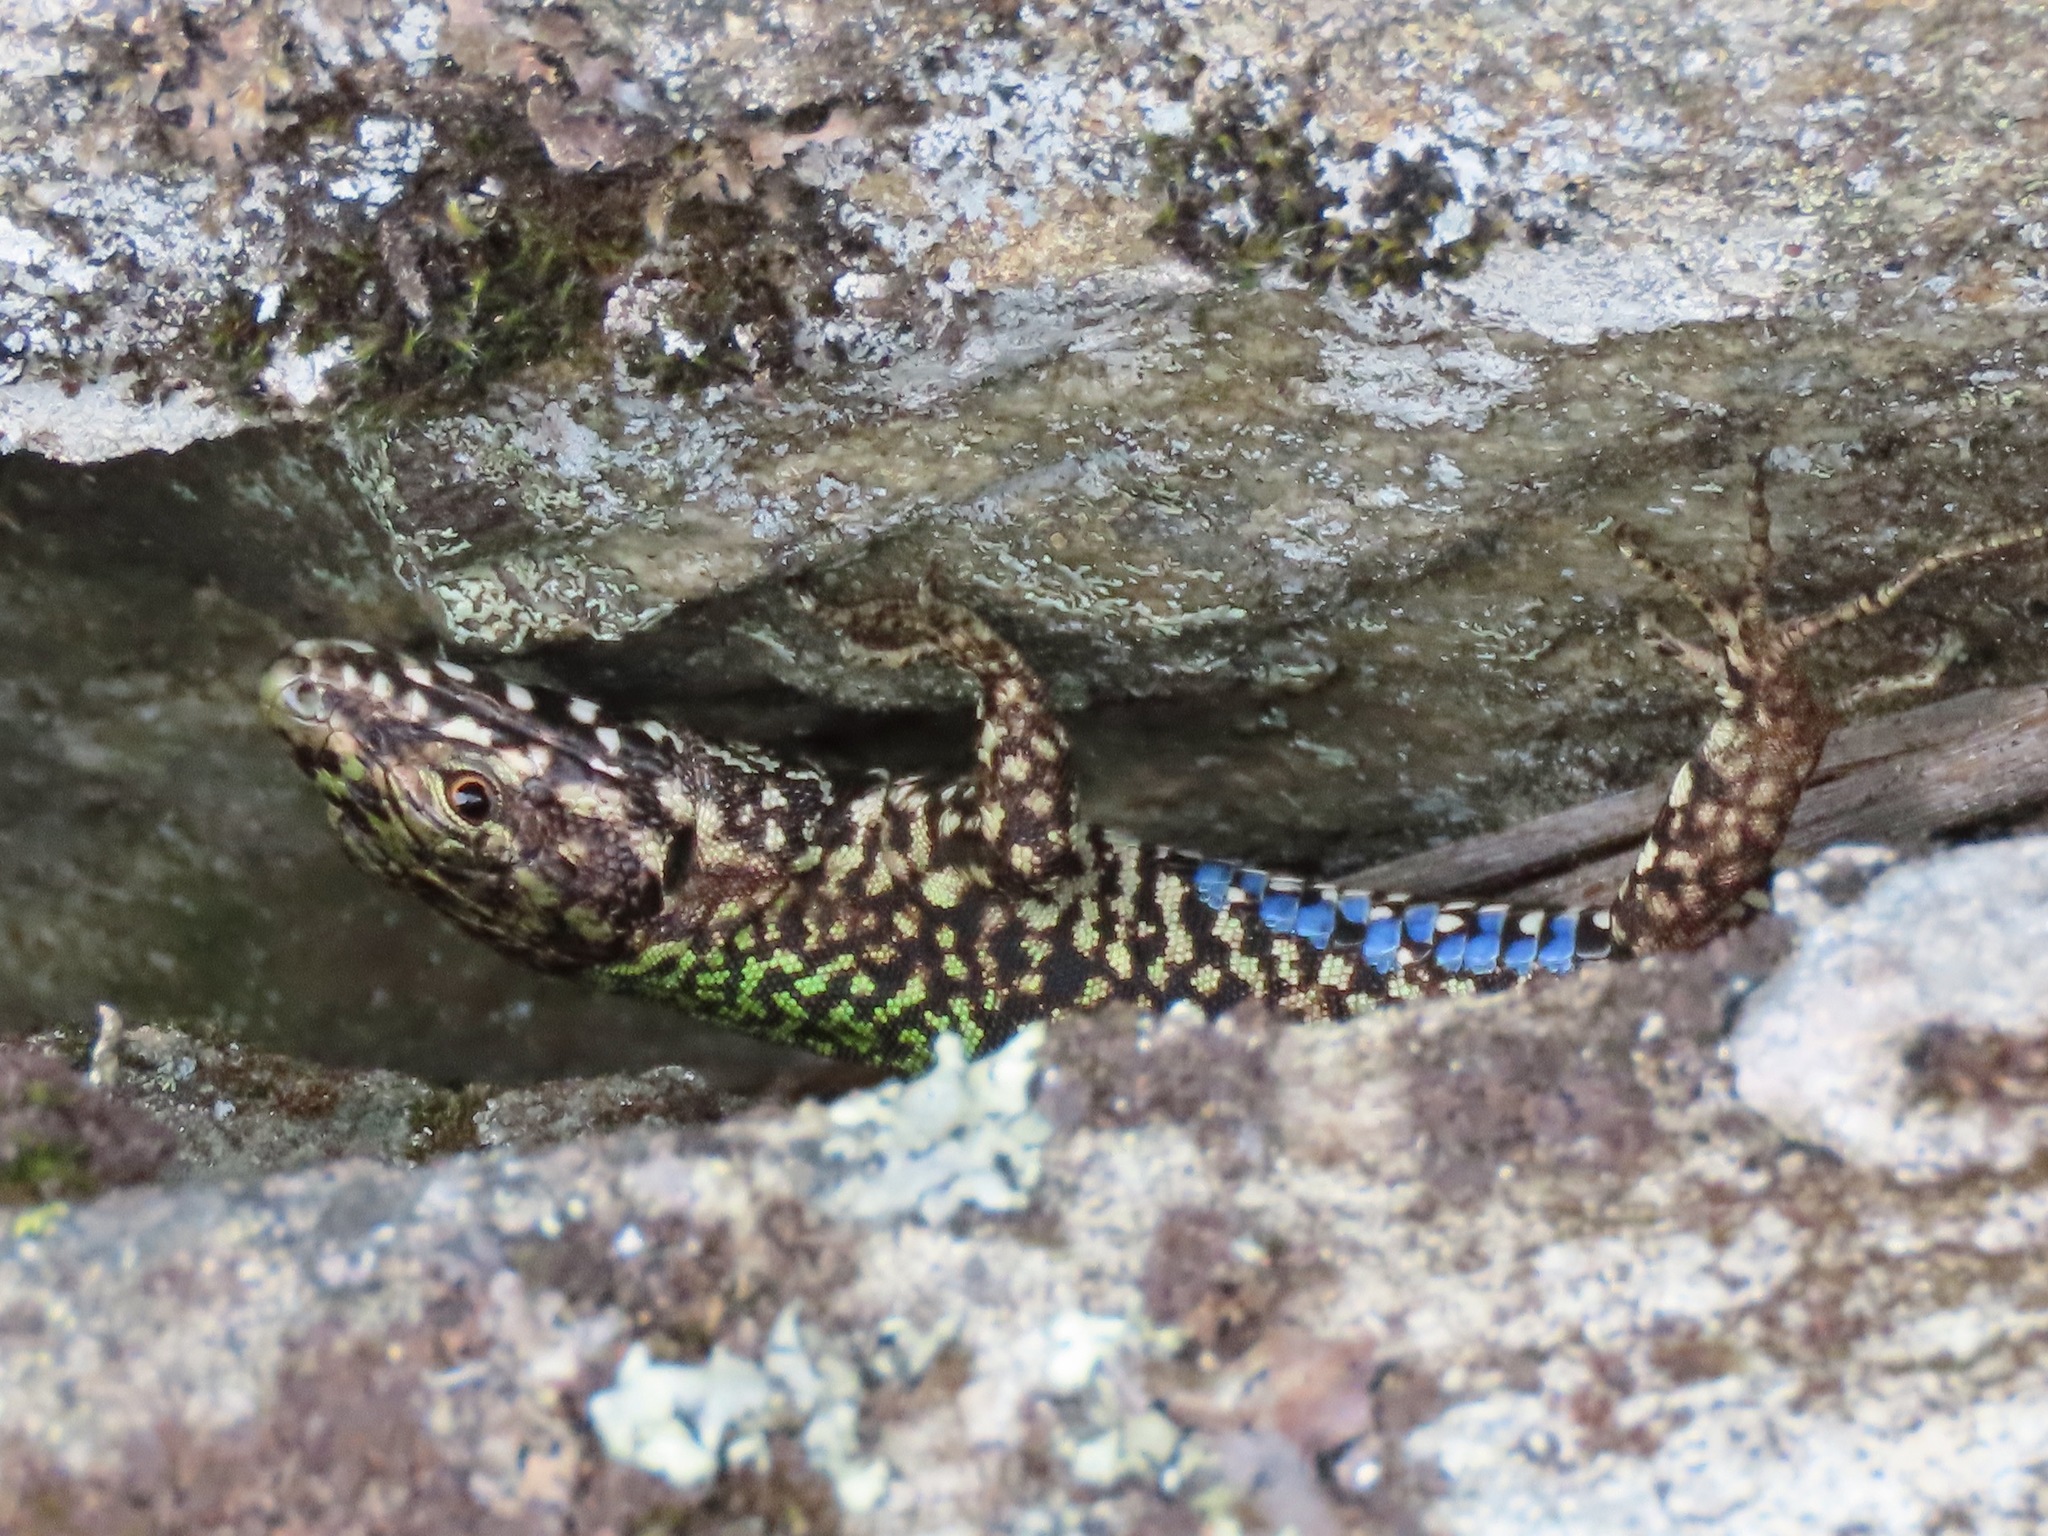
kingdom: Animalia
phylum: Chordata
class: Squamata
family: Lacertidae
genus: Podarcis
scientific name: Podarcis muralis
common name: Common wall lizard
